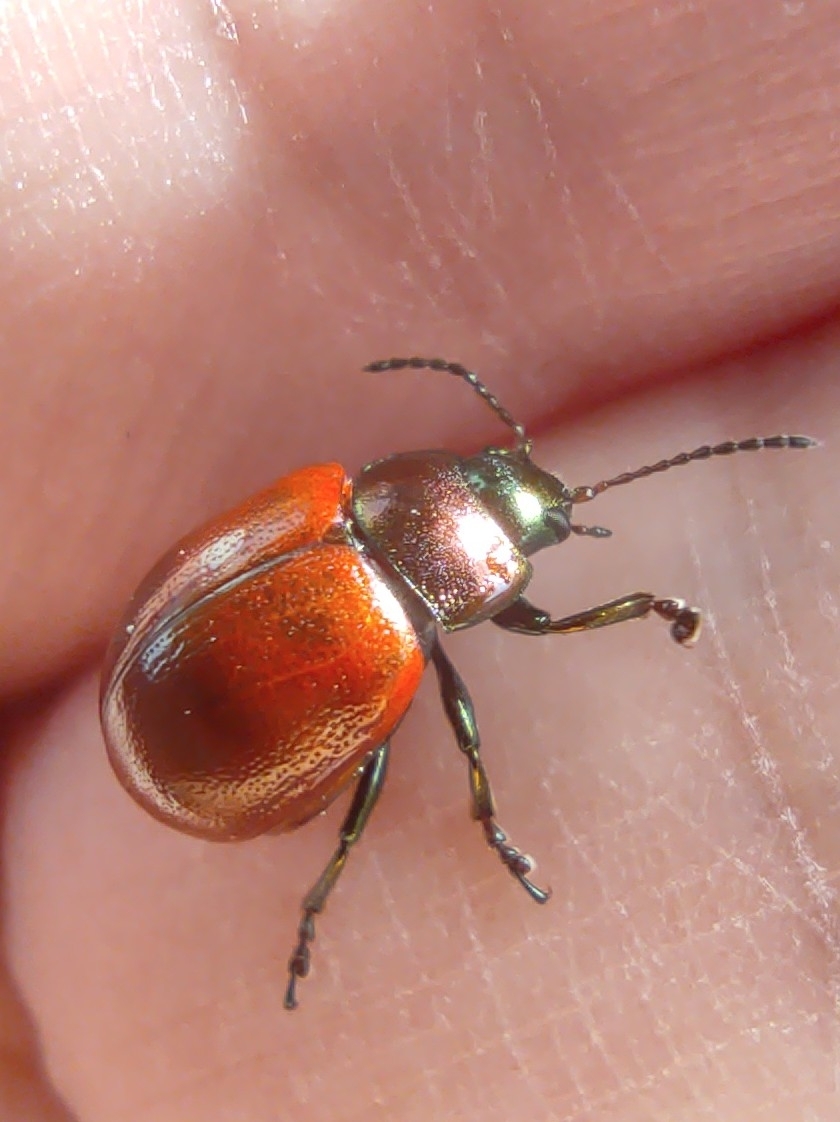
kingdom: Animalia
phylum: Arthropoda
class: Insecta
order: Coleoptera
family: Chrysomelidae
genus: Chrysomela
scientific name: Chrysomela polita
